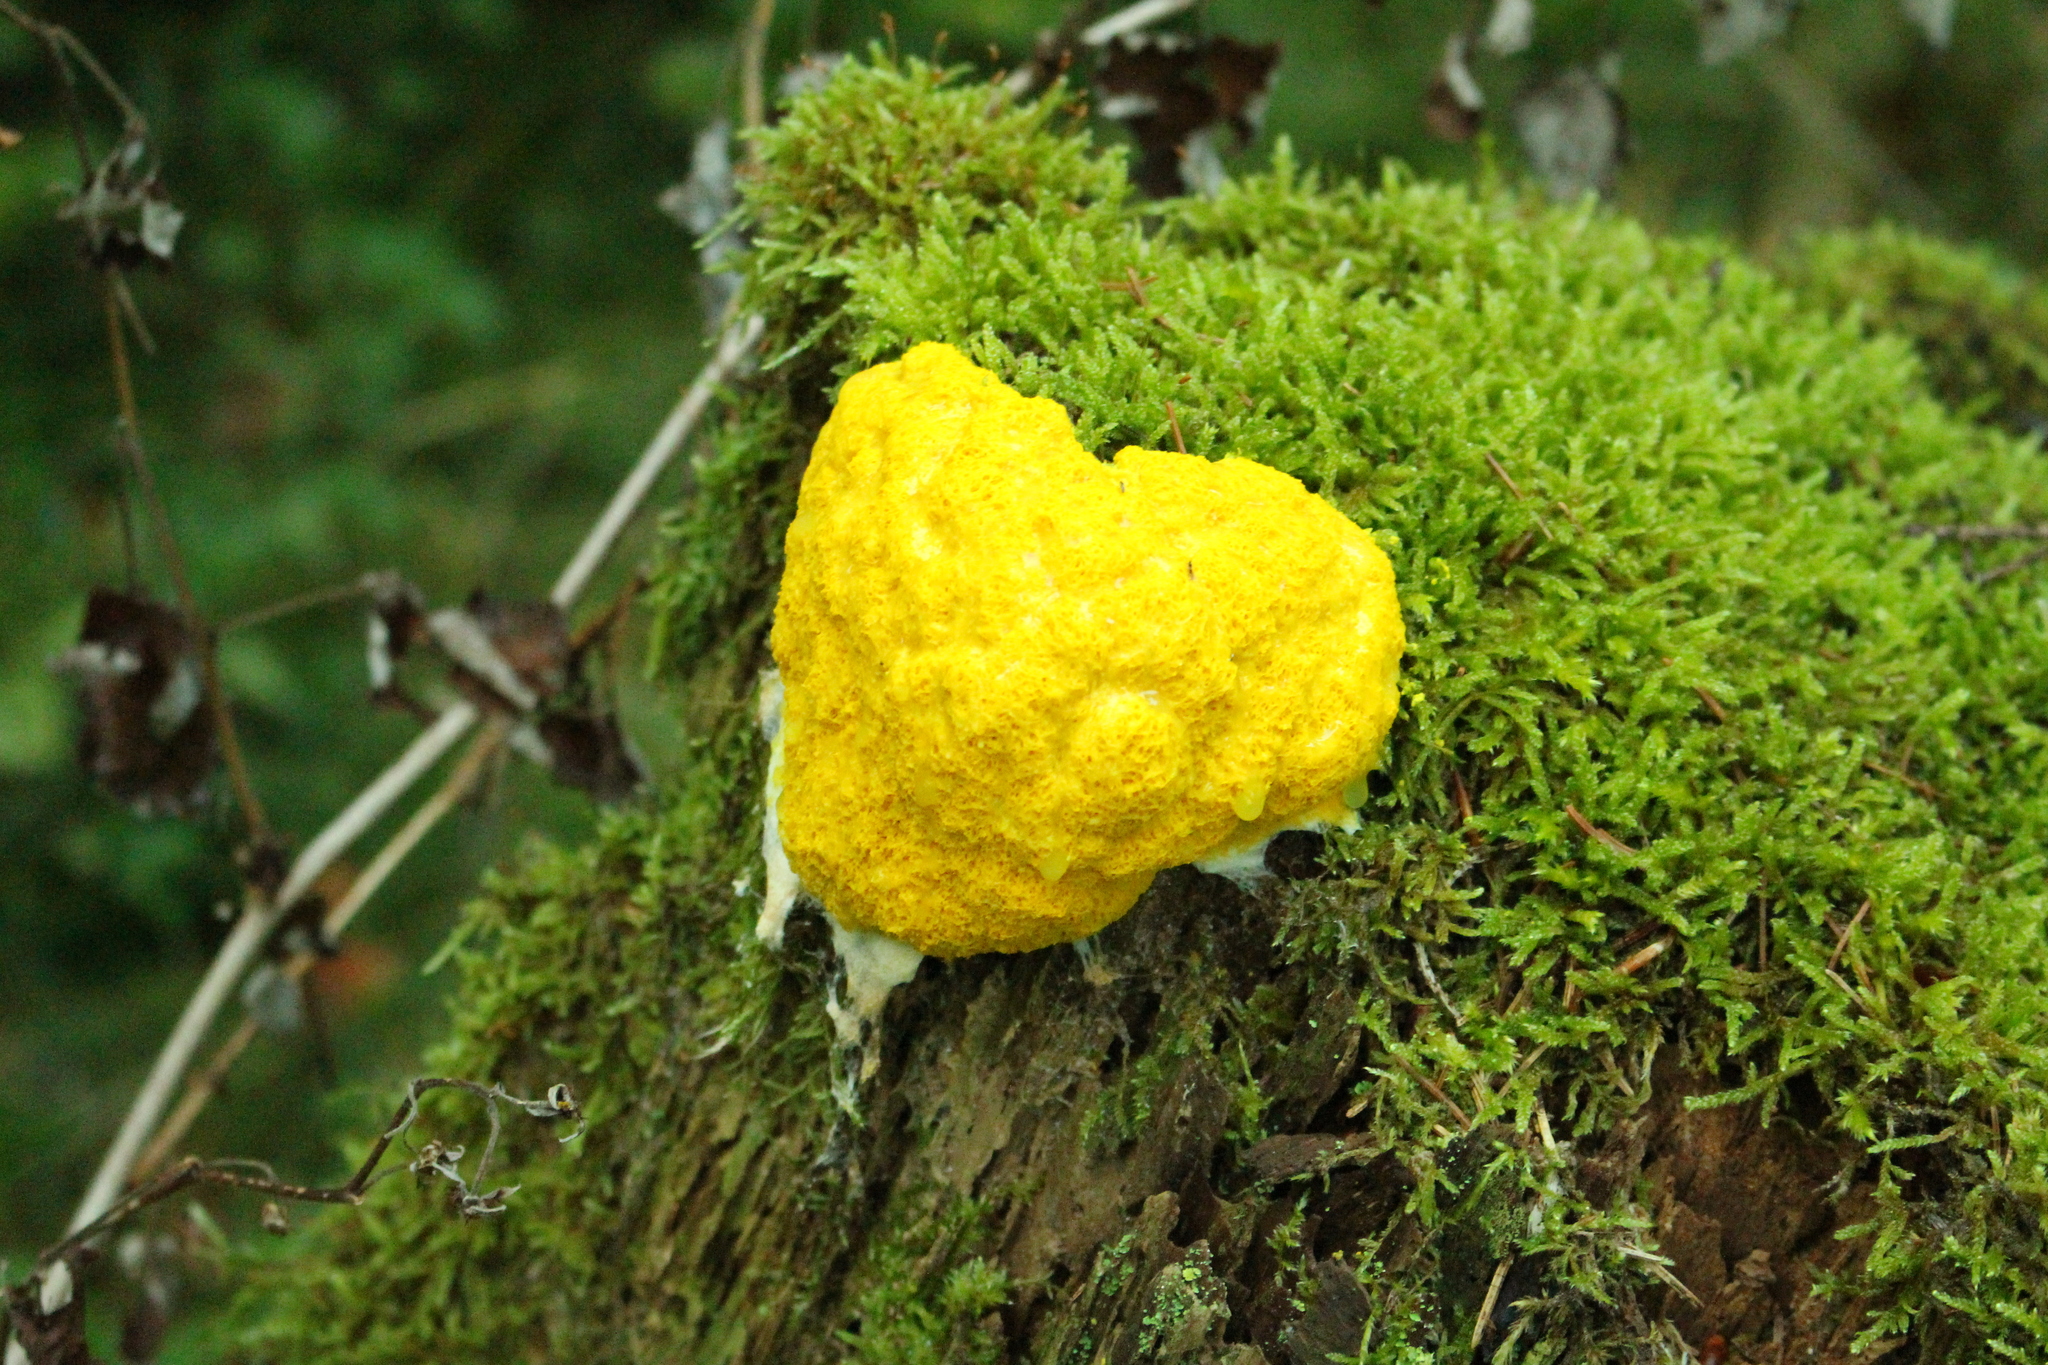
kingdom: Protozoa
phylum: Mycetozoa
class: Myxomycetes
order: Physarales
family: Physaraceae
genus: Fuligo
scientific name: Fuligo septica
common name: Dog vomit slime mold
